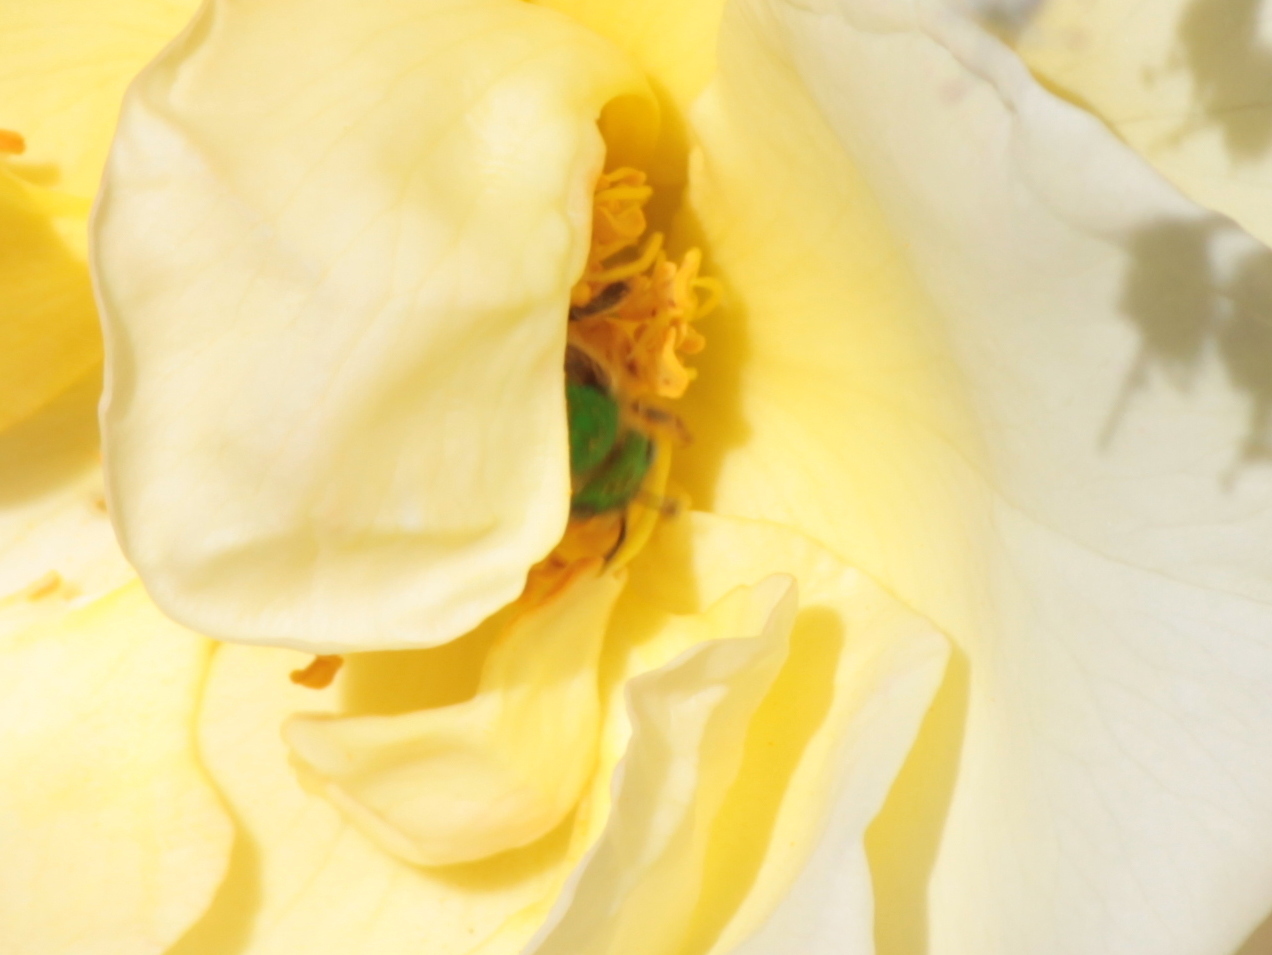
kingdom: Animalia
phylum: Arthropoda
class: Insecta
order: Hymenoptera
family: Halictidae
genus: Agapostemon
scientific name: Agapostemon virescens
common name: Bicolored striped sweat bee
